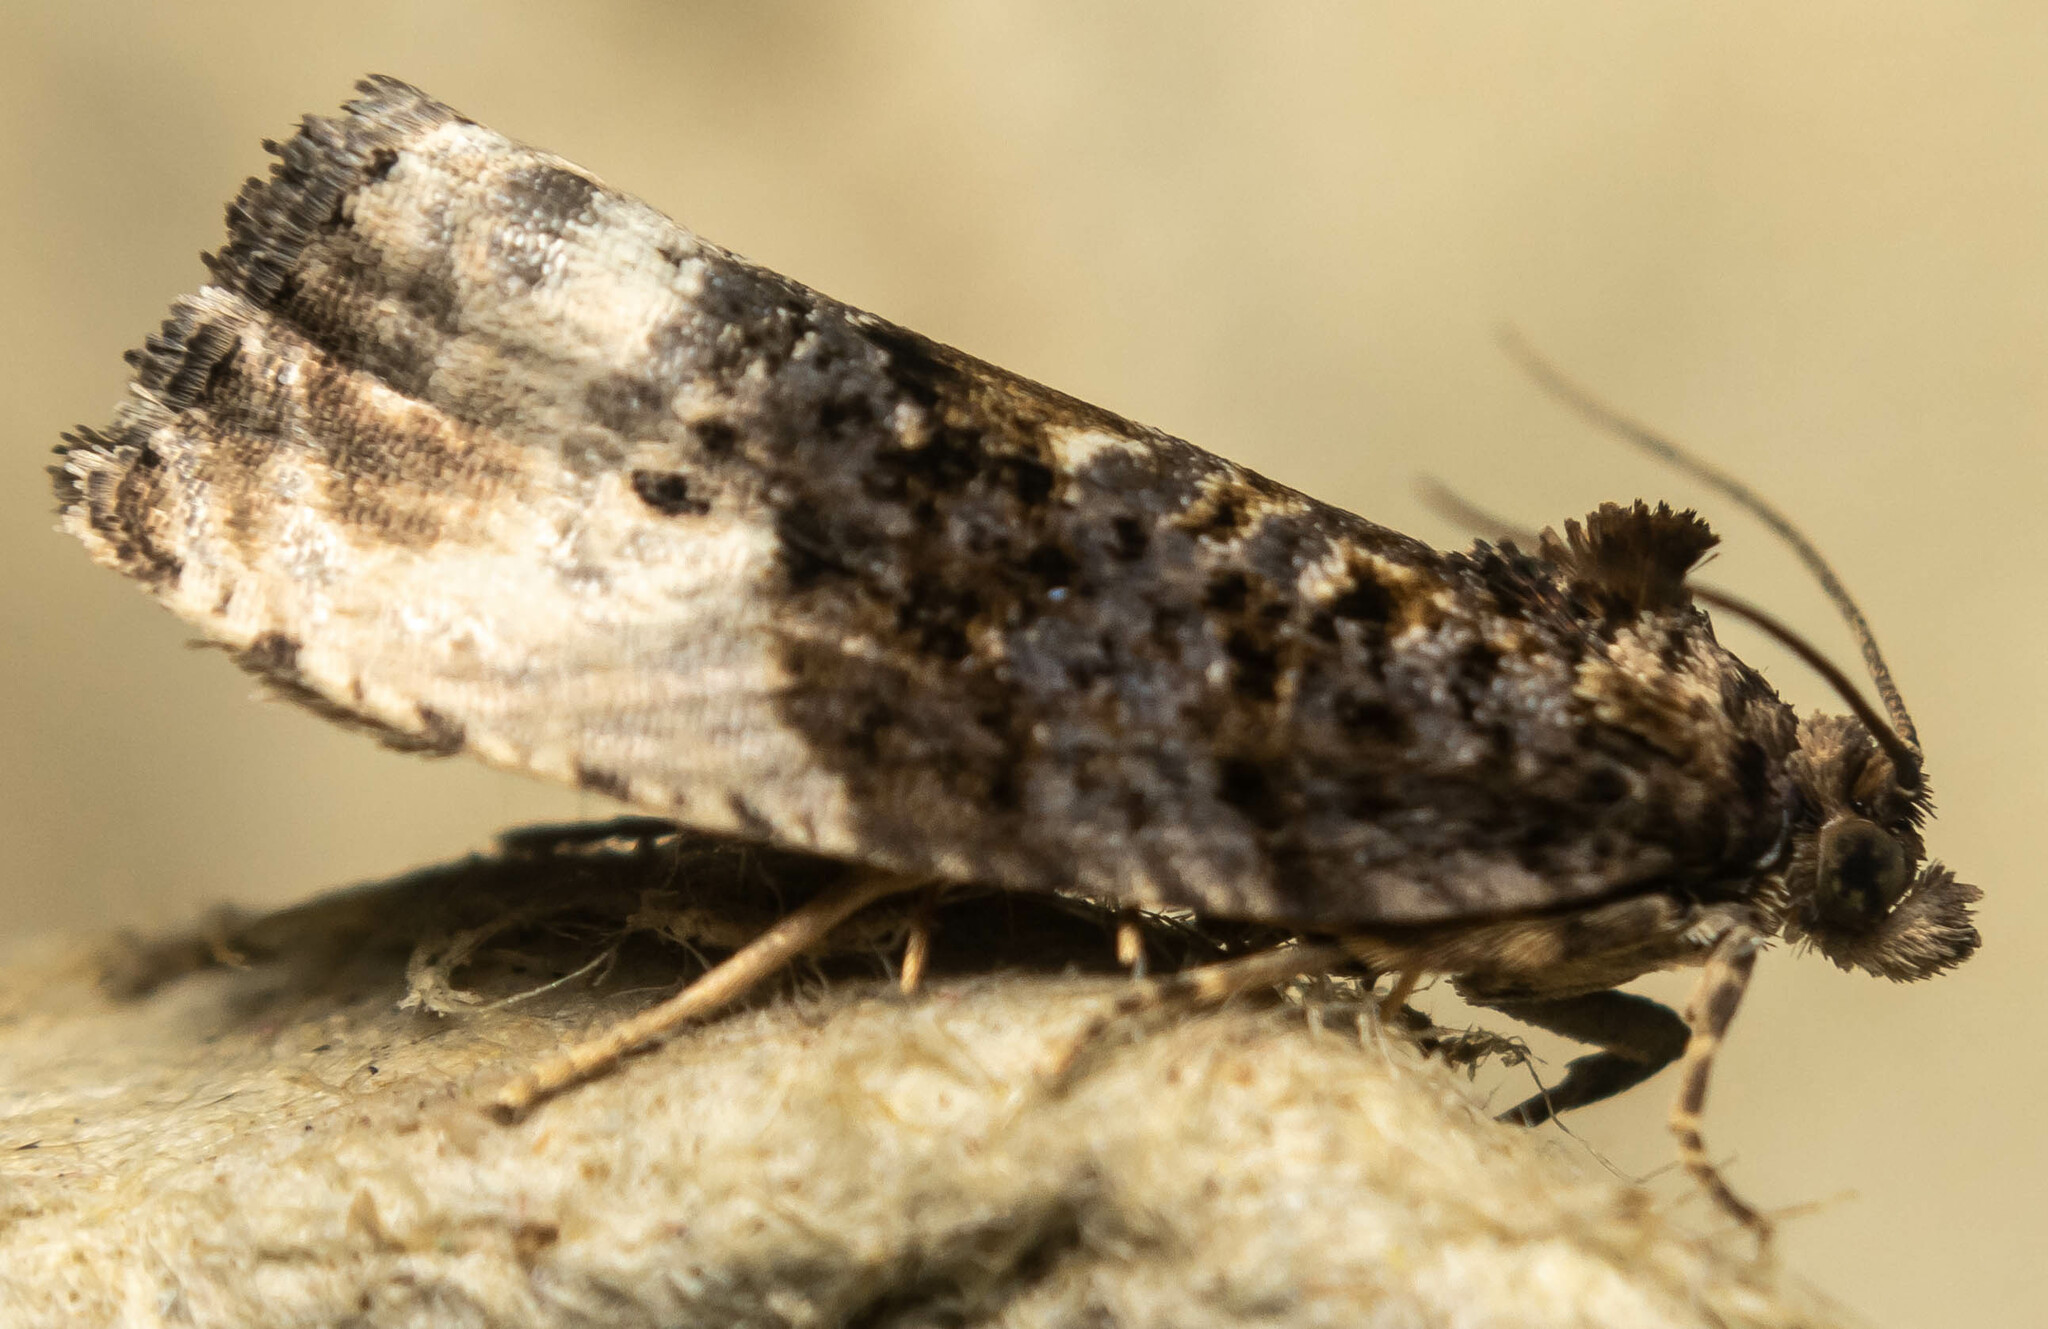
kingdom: Animalia
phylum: Arthropoda
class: Insecta
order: Lepidoptera
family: Tortricidae
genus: Hedya
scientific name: Hedya nubiferana
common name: Marbled orchard tortrix
